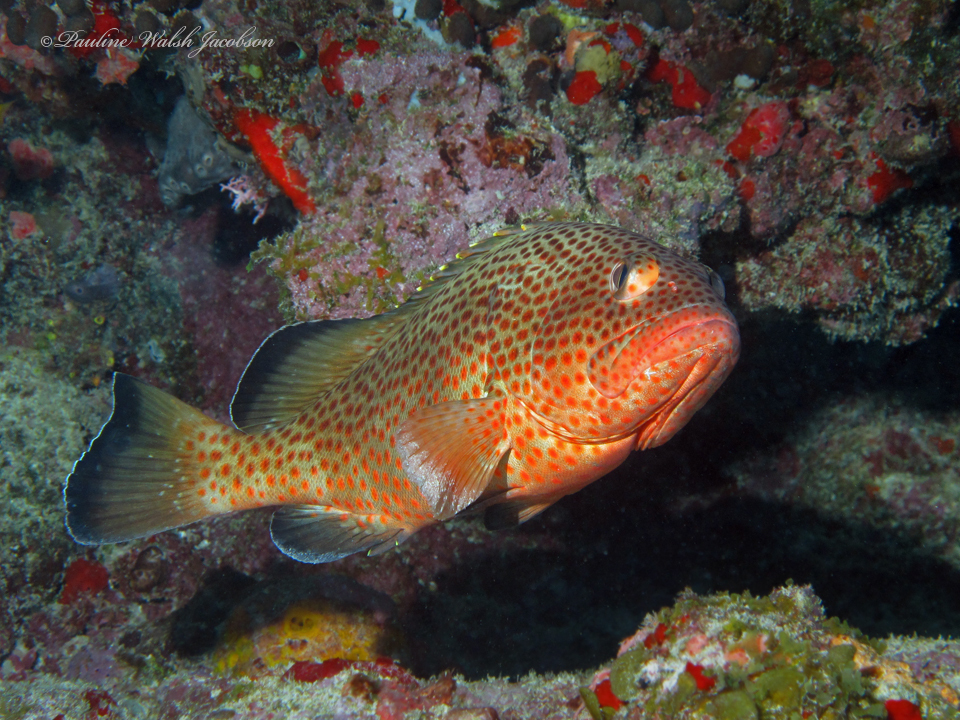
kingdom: Animalia
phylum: Chordata
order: Perciformes
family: Serranidae
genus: Epinephelus
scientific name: Epinephelus guttatus
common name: Red hind
